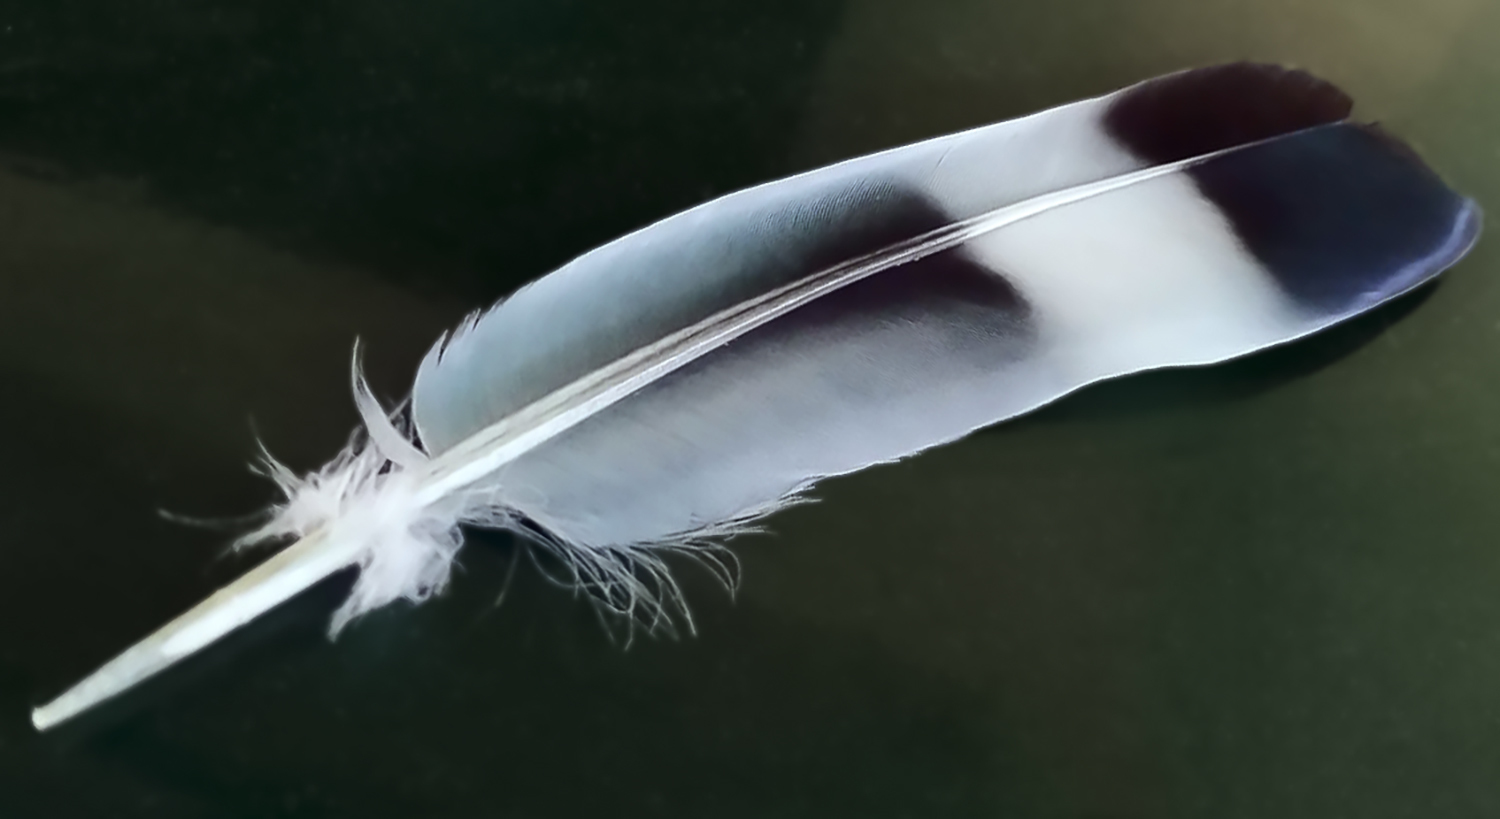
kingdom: Animalia
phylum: Chordata
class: Aves
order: Columbiformes
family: Columbidae
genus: Columba
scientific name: Columba palumbus
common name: Common wood pigeon
